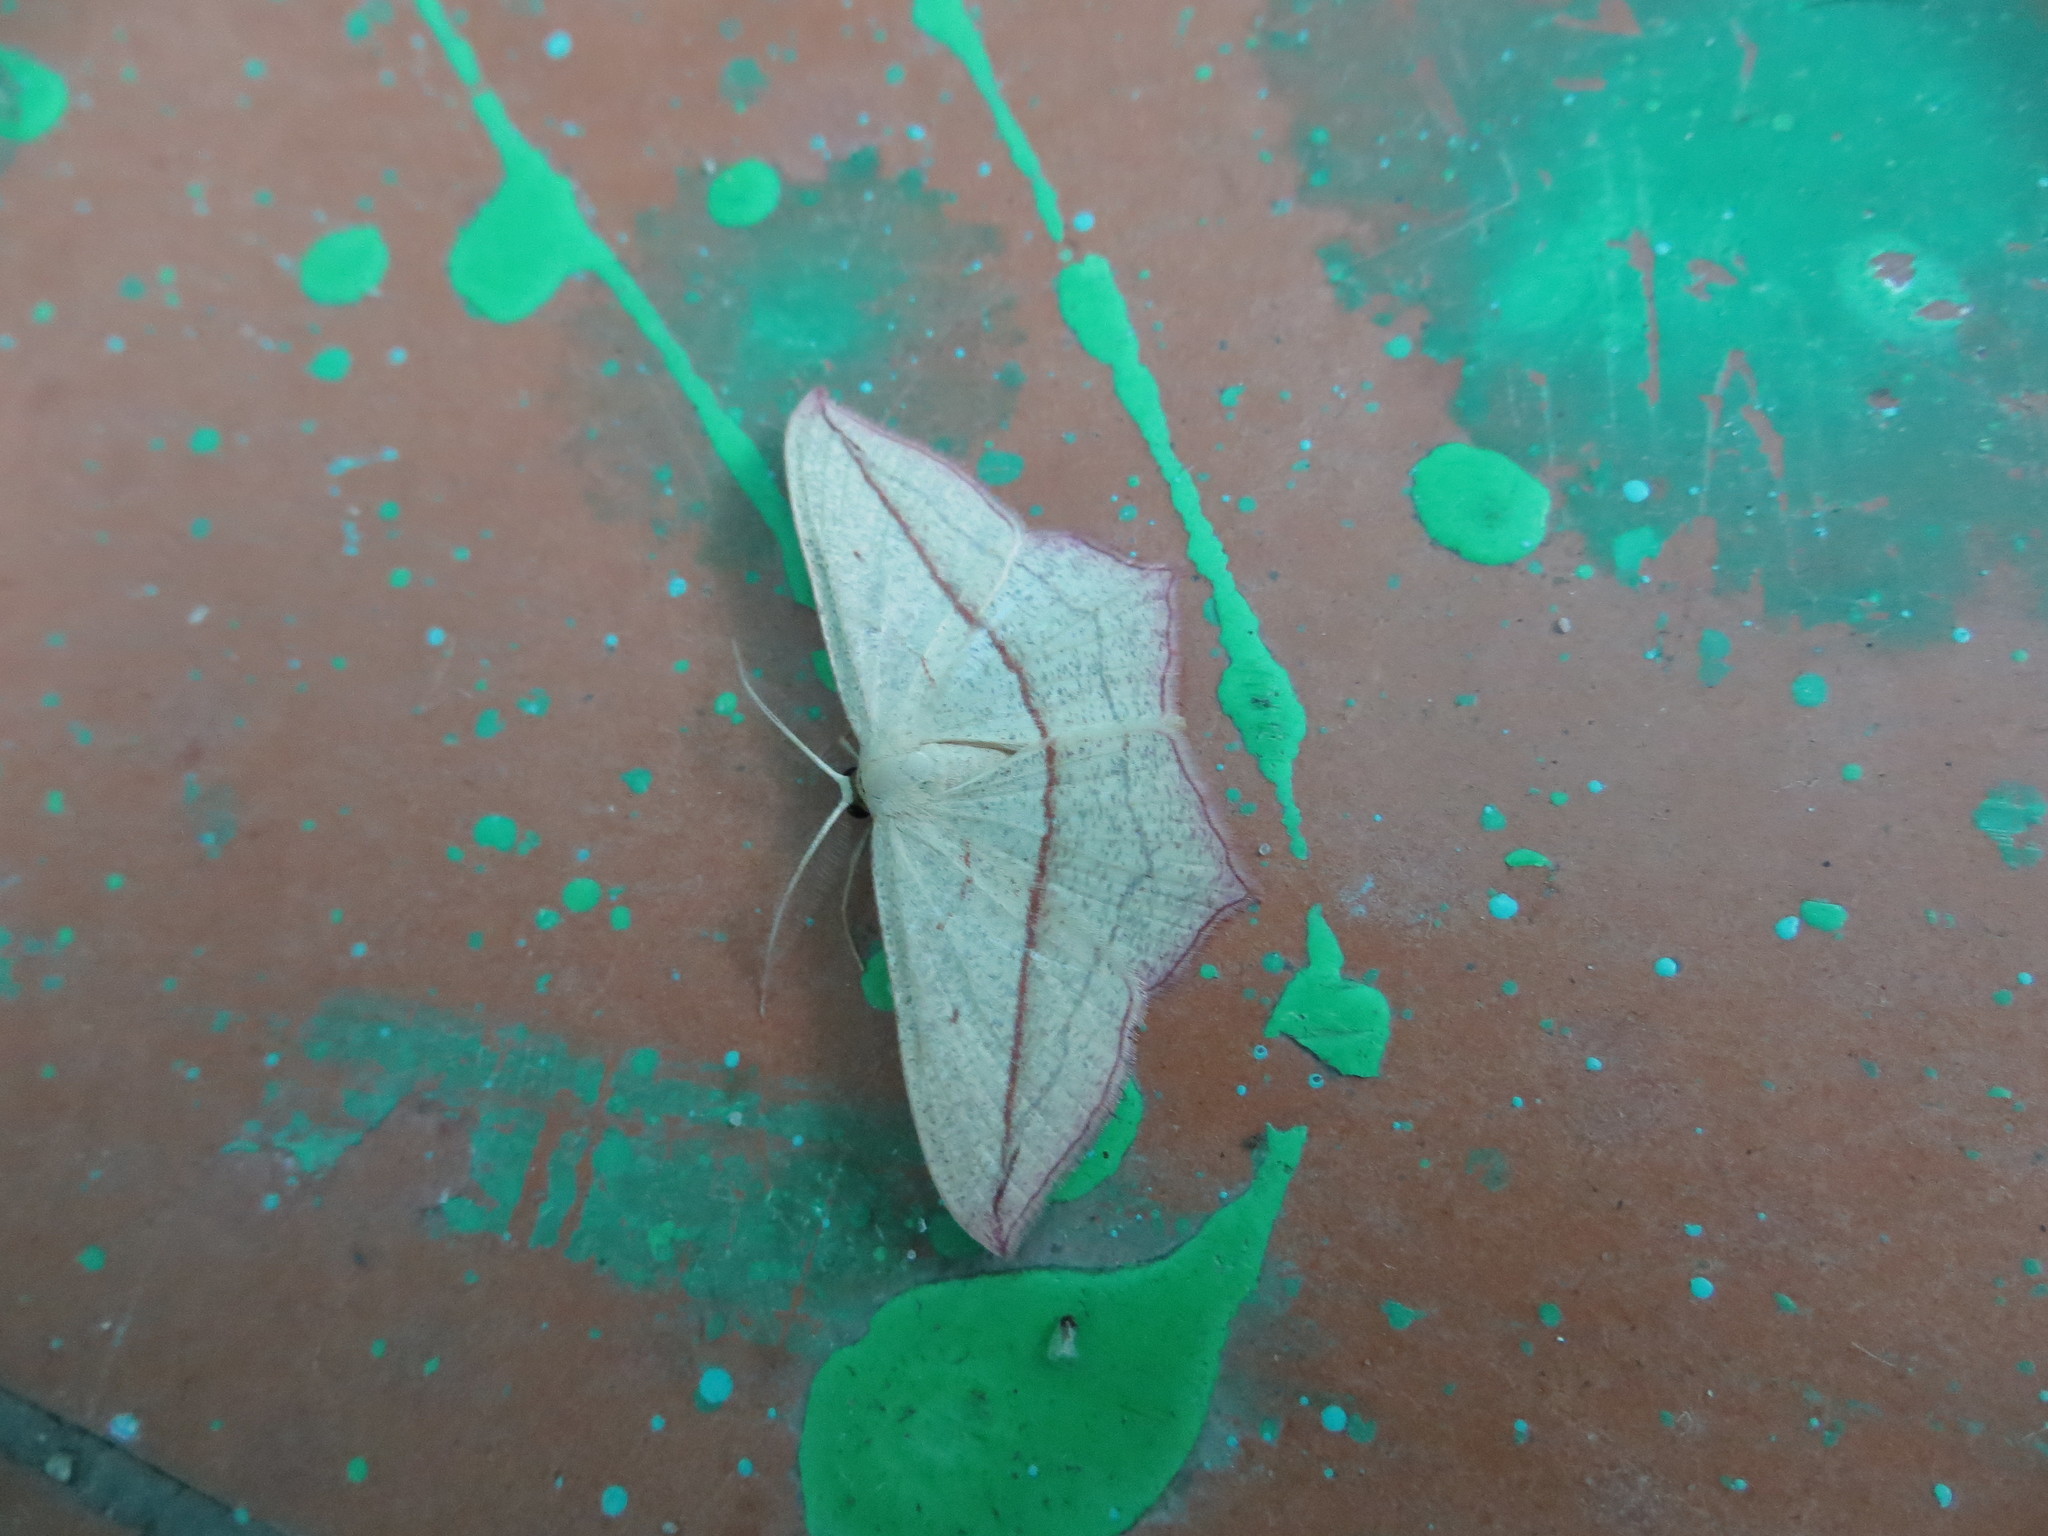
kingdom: Animalia
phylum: Arthropoda
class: Insecta
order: Lepidoptera
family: Geometridae
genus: Timandra
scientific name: Timandra comae
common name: Blood-vein
